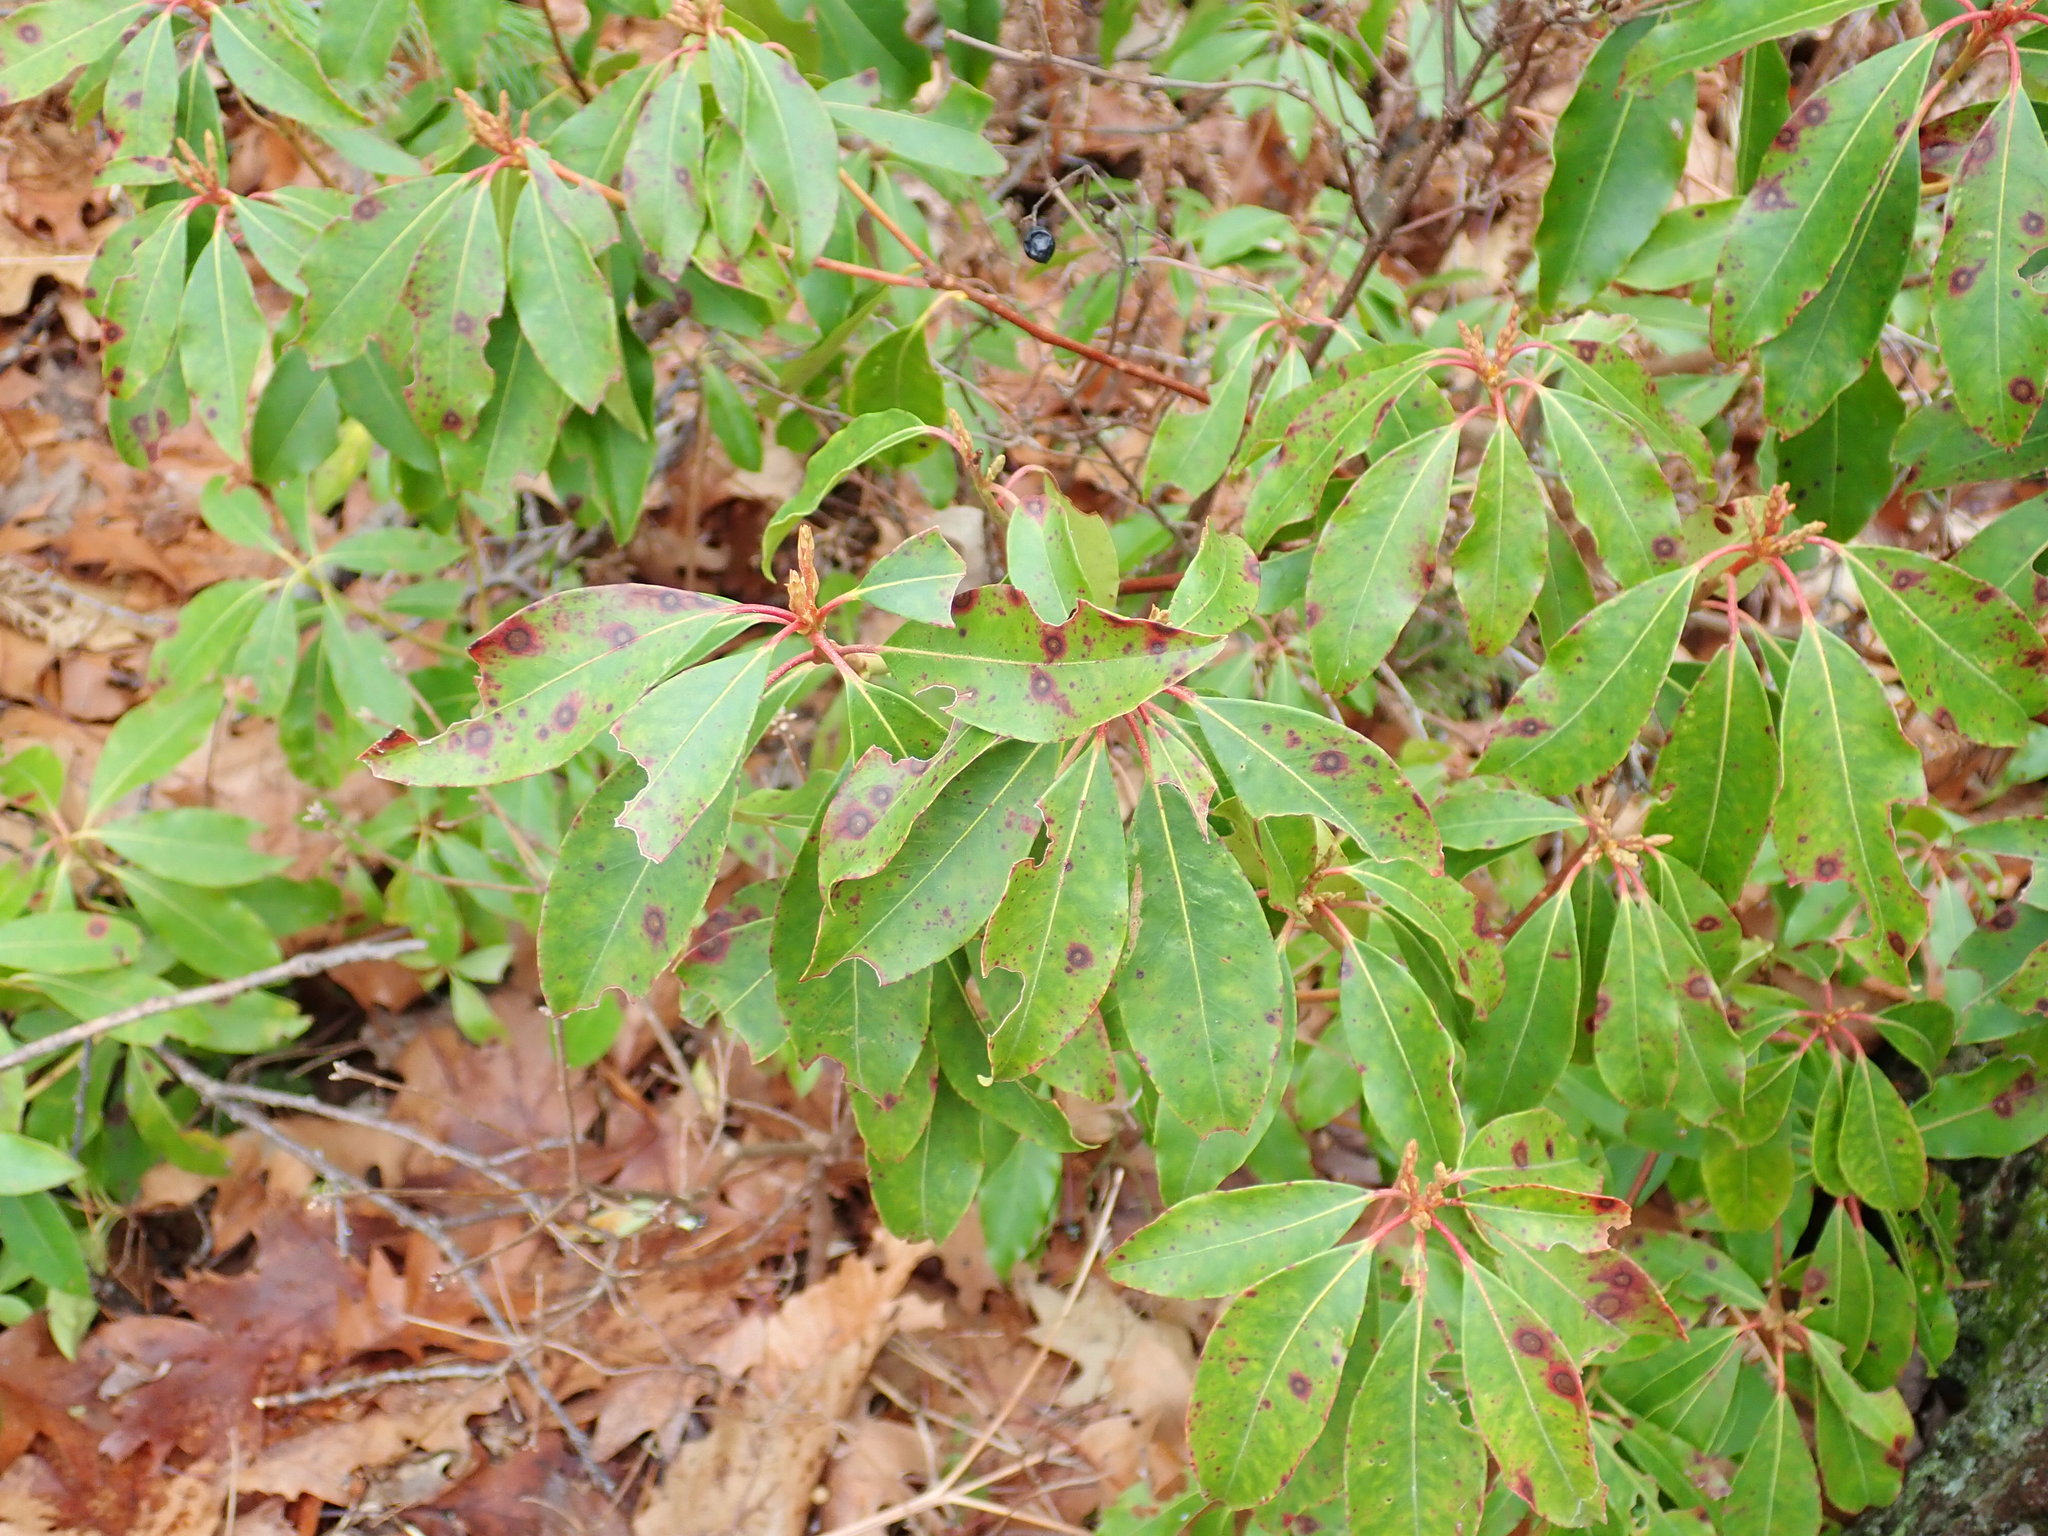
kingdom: Plantae
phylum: Tracheophyta
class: Magnoliopsida
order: Ericales
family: Ericaceae
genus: Kalmia
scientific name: Kalmia latifolia
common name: Mountain-laurel
